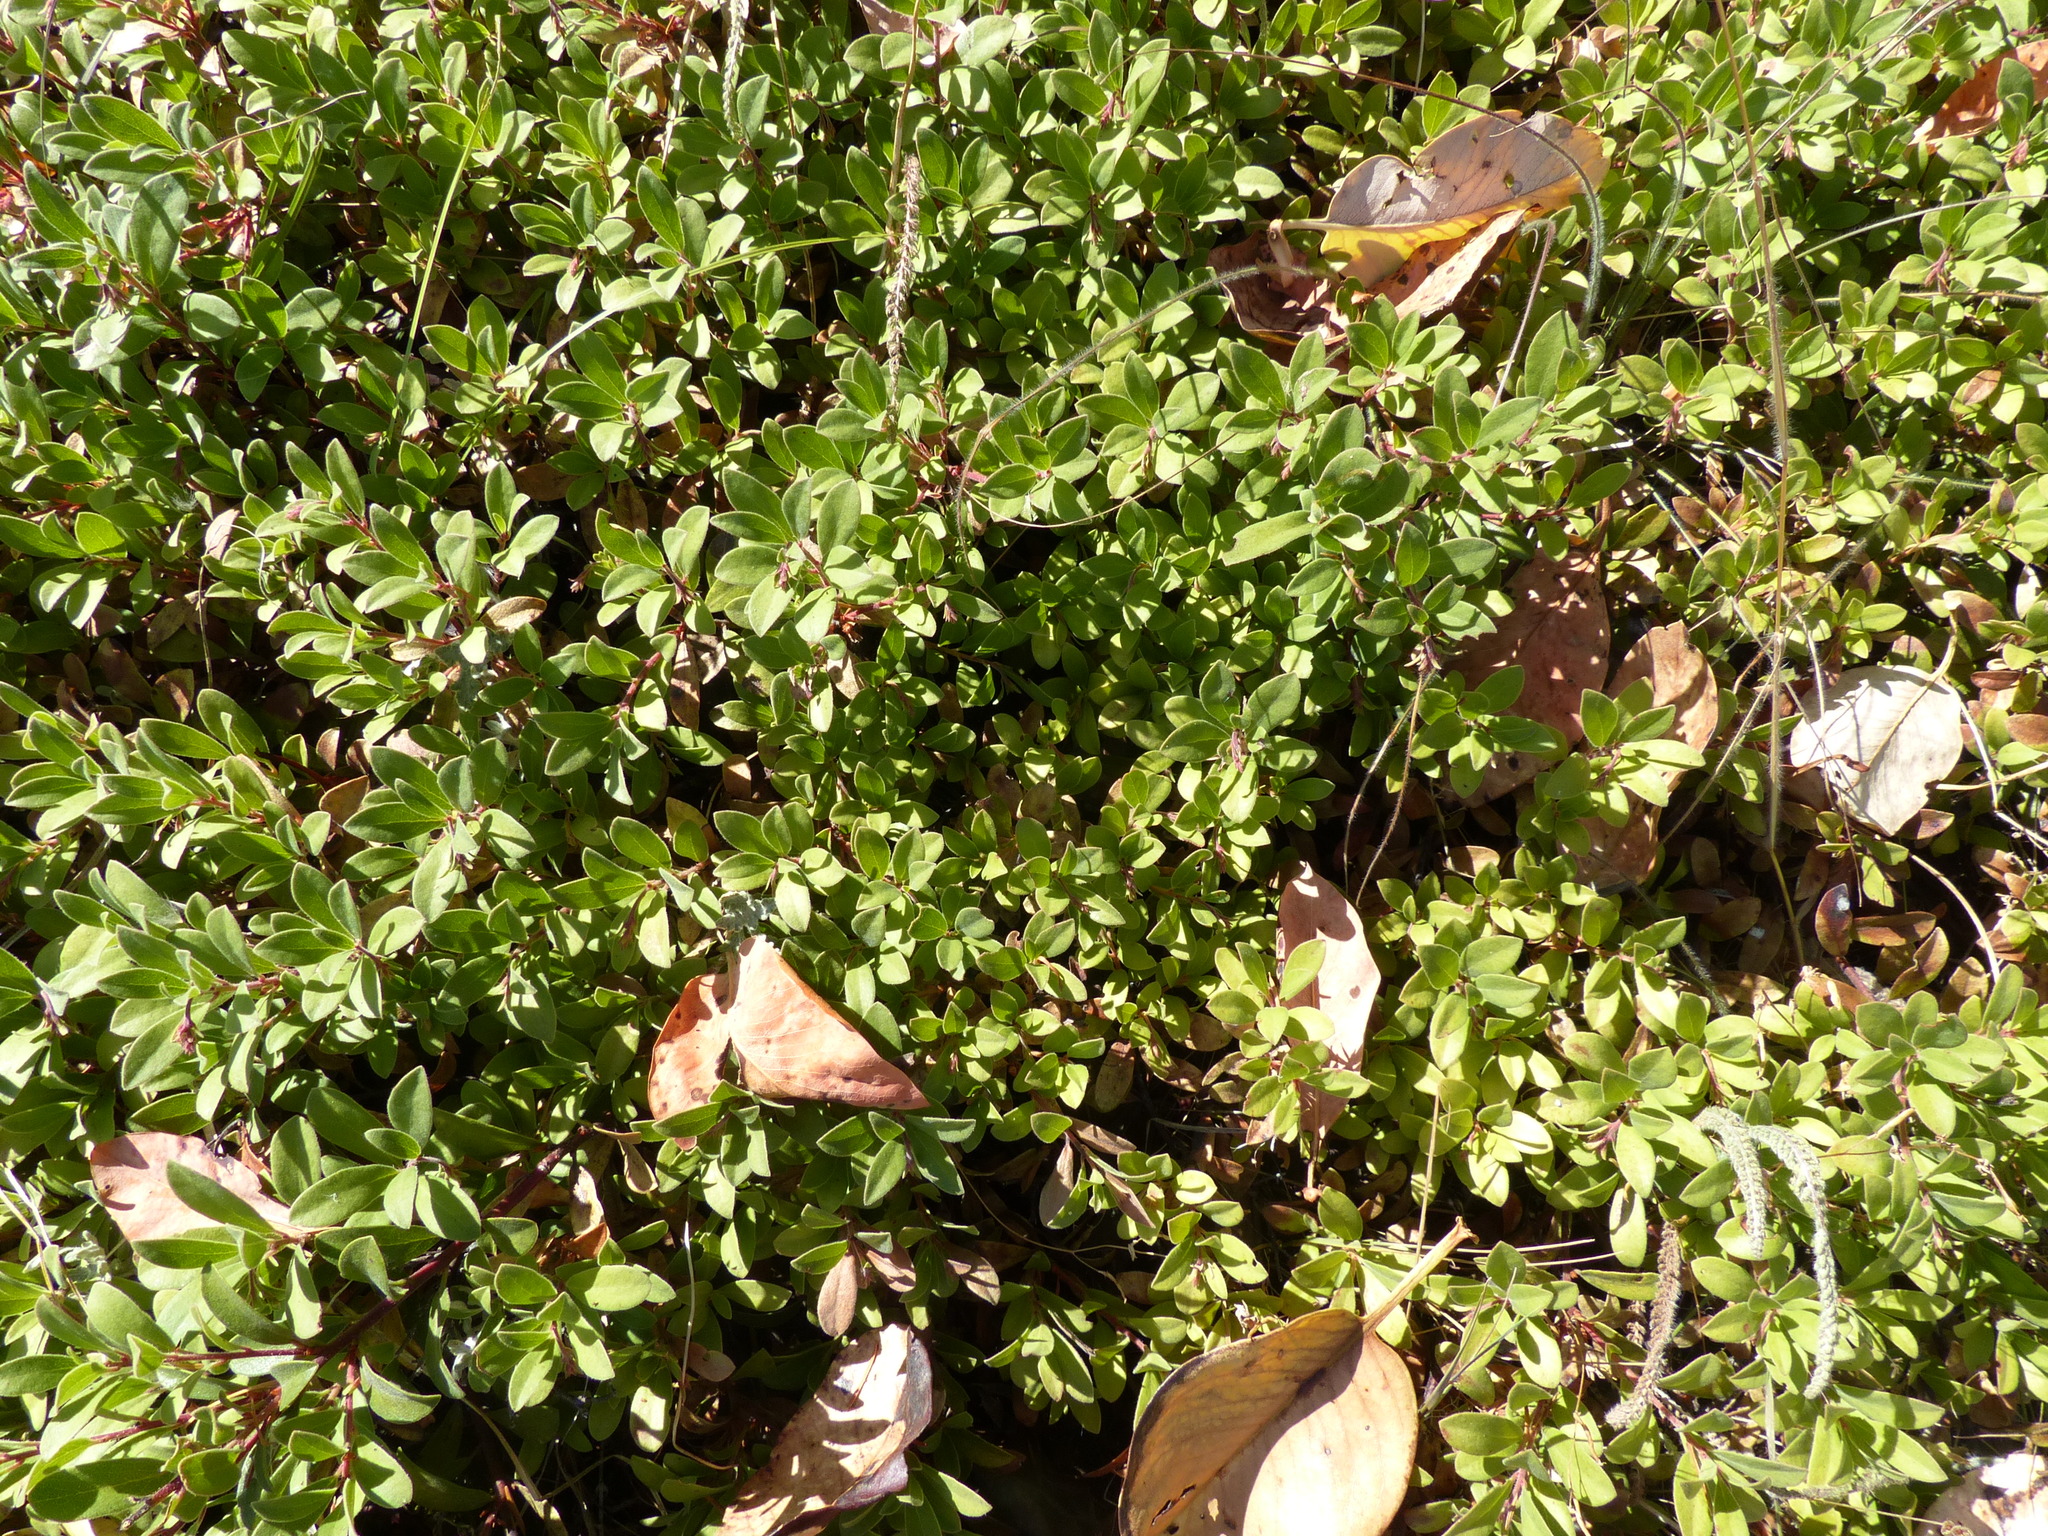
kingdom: Plantae
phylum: Tracheophyta
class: Magnoliopsida
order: Ericales
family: Ericaceae
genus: Arctostaphylos
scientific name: Arctostaphylos uva-ursi
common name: Bearberry
